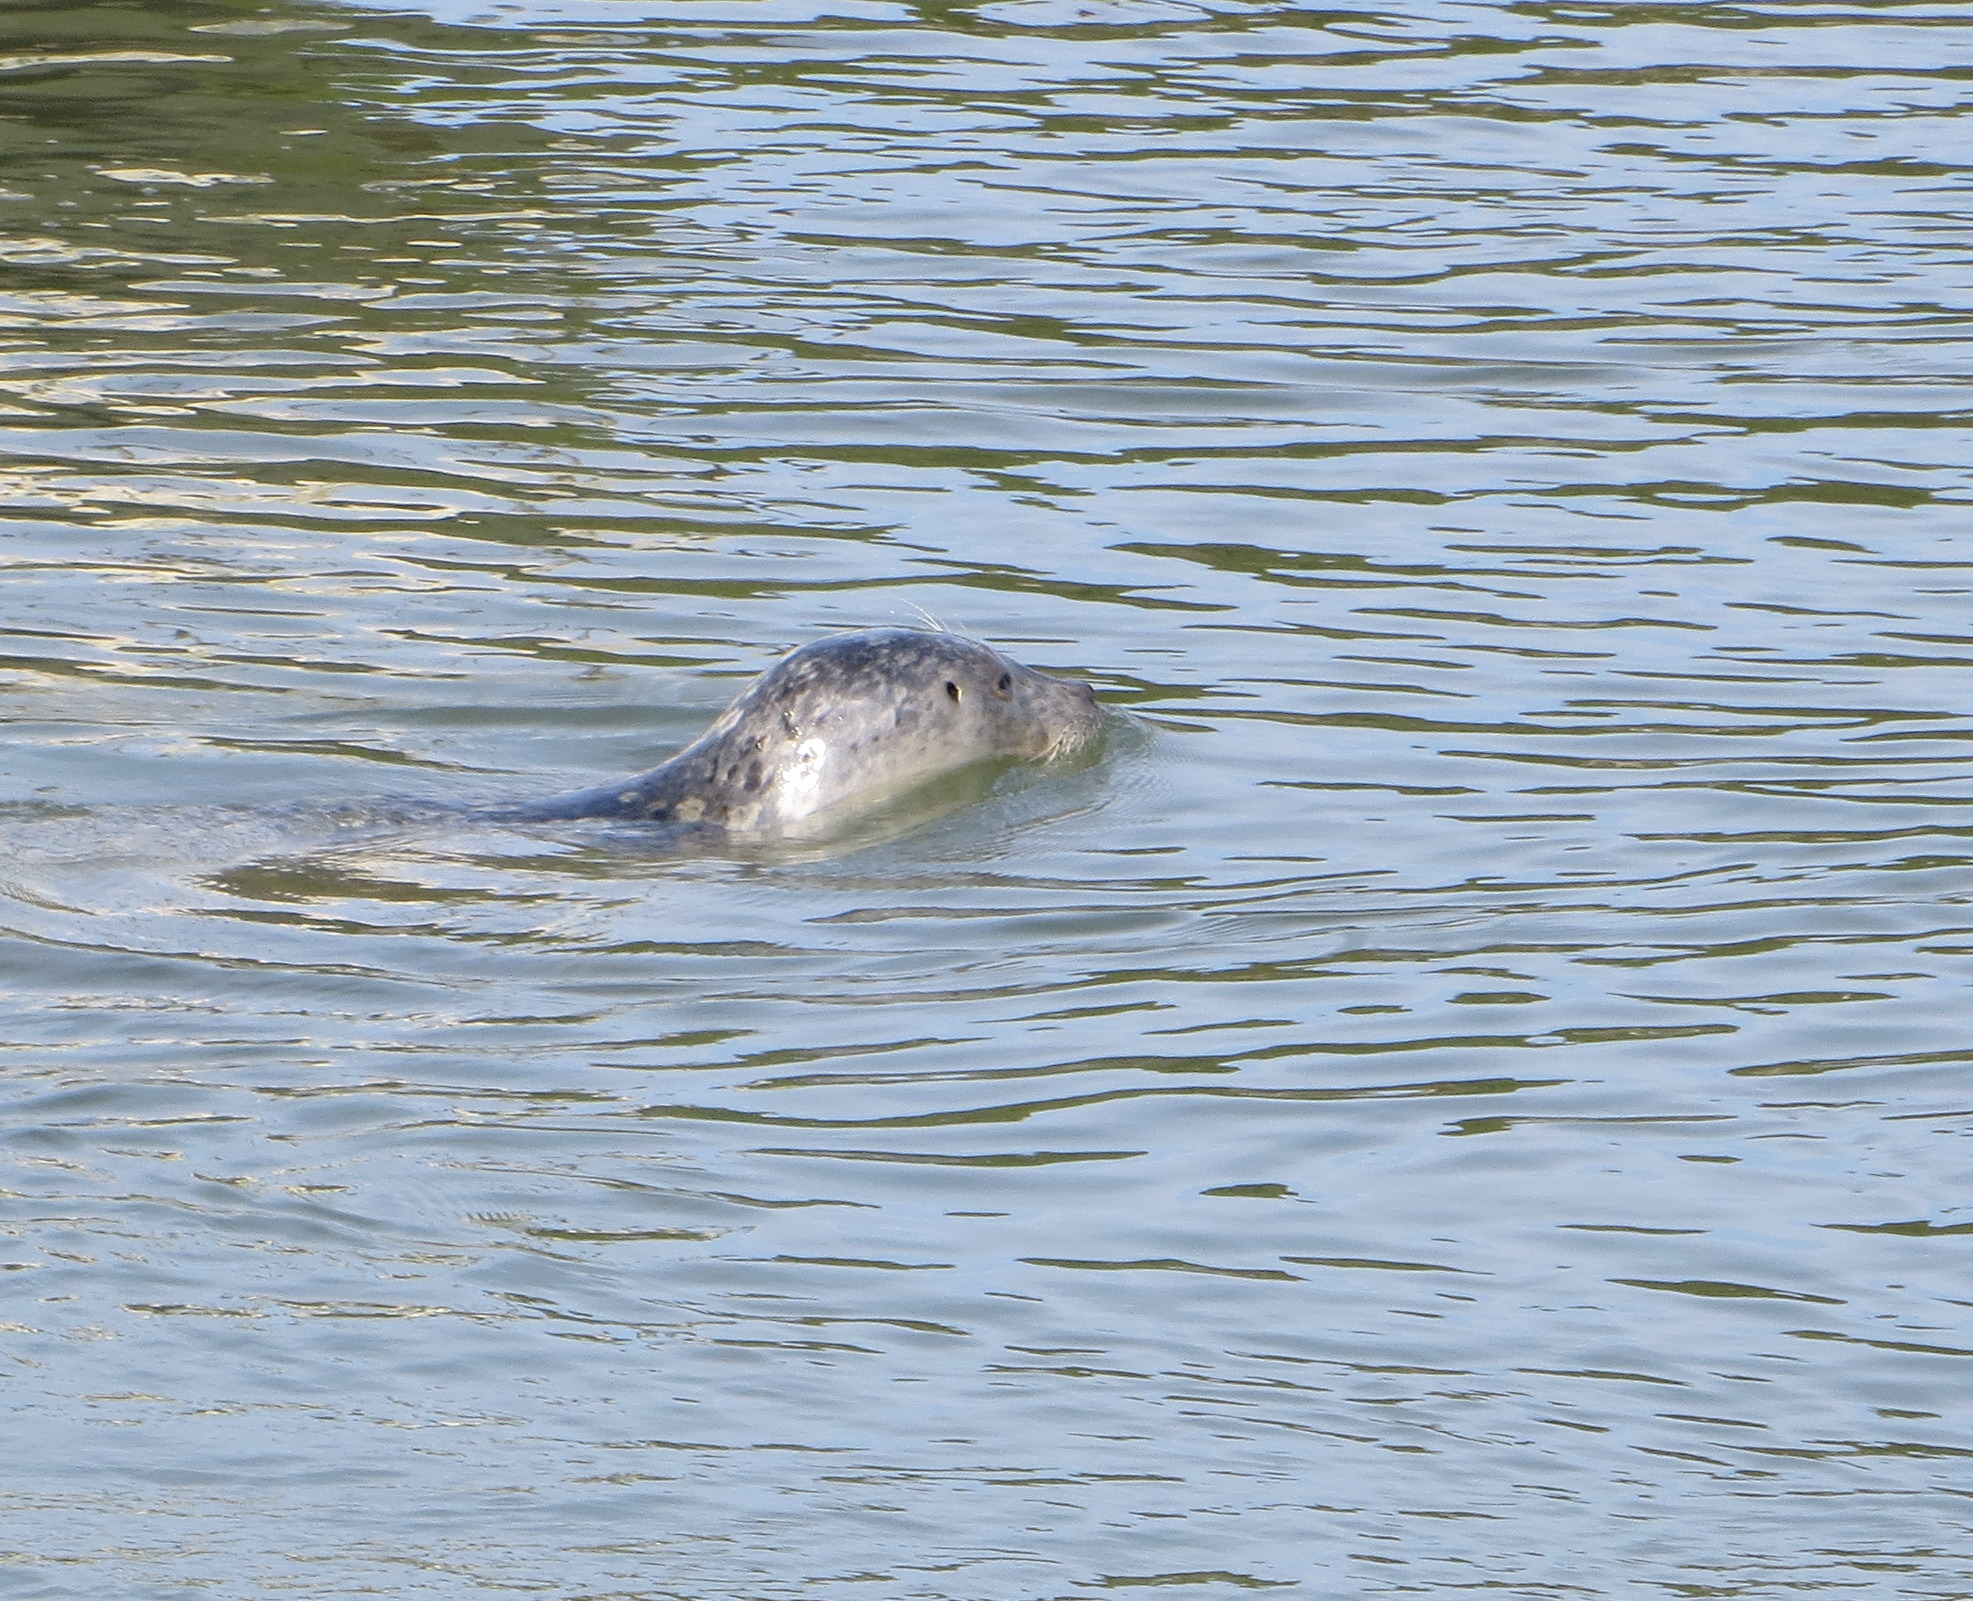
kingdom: Animalia
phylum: Chordata
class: Mammalia
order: Carnivora
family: Phocidae
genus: Phoca
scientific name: Phoca vitulina
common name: Harbor seal
